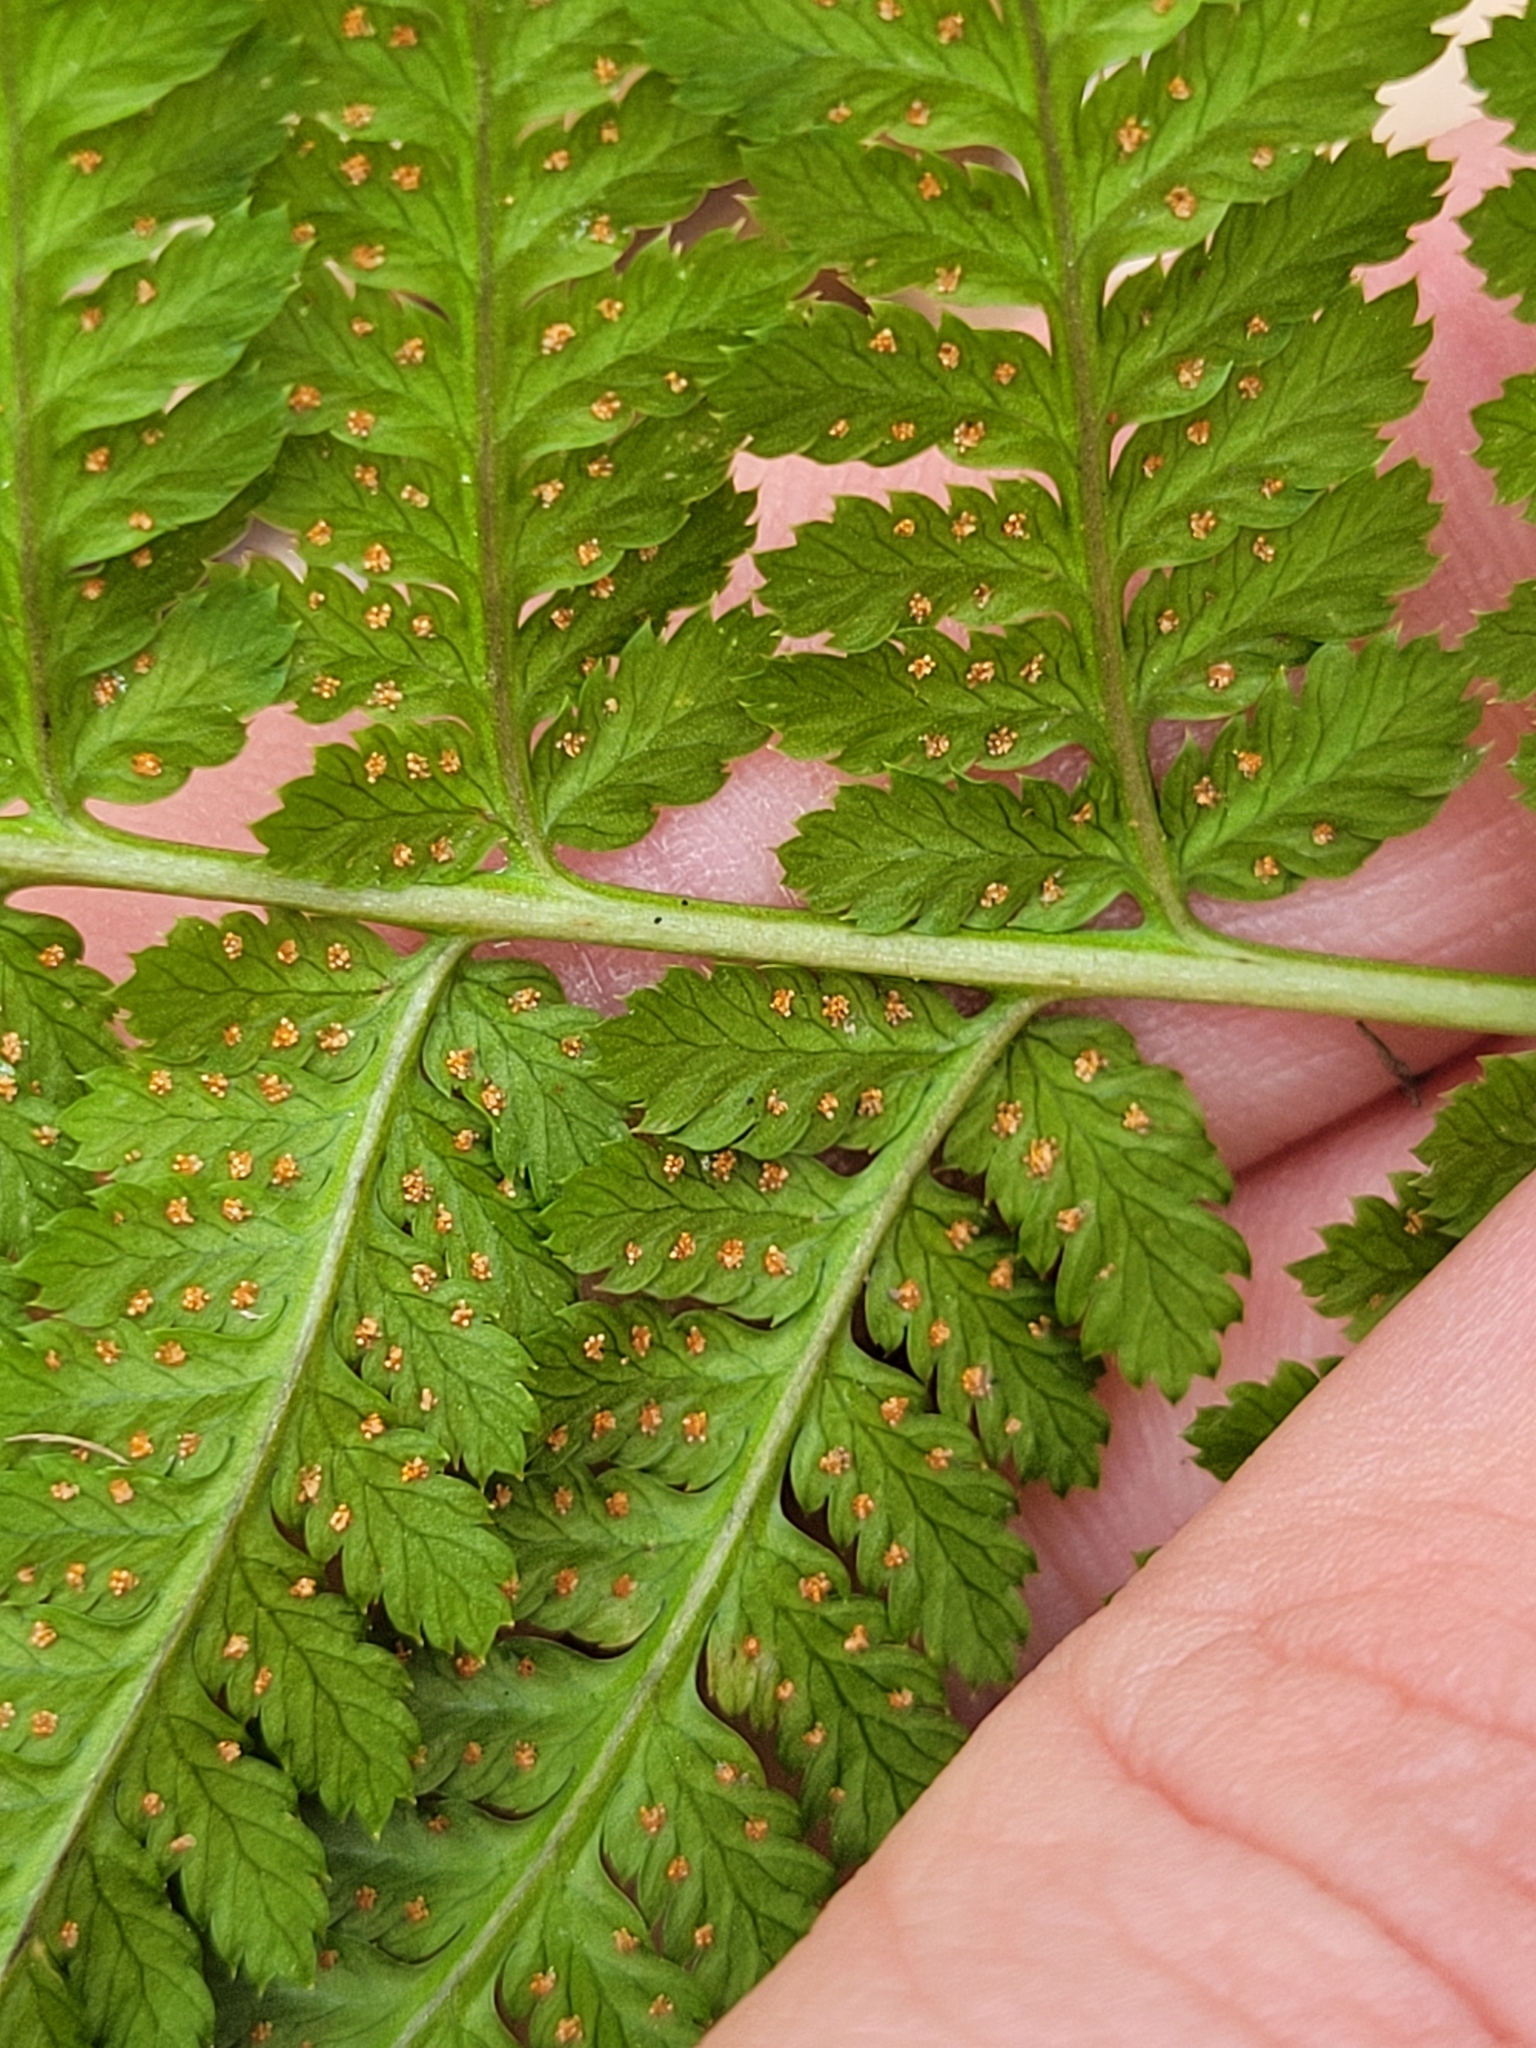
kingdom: Plantae
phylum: Tracheophyta
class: Polypodiopsida
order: Polypodiales
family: Dryopteridaceae
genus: Dryopteris
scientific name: Dryopteris intermedia
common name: Evergreen wood fern
